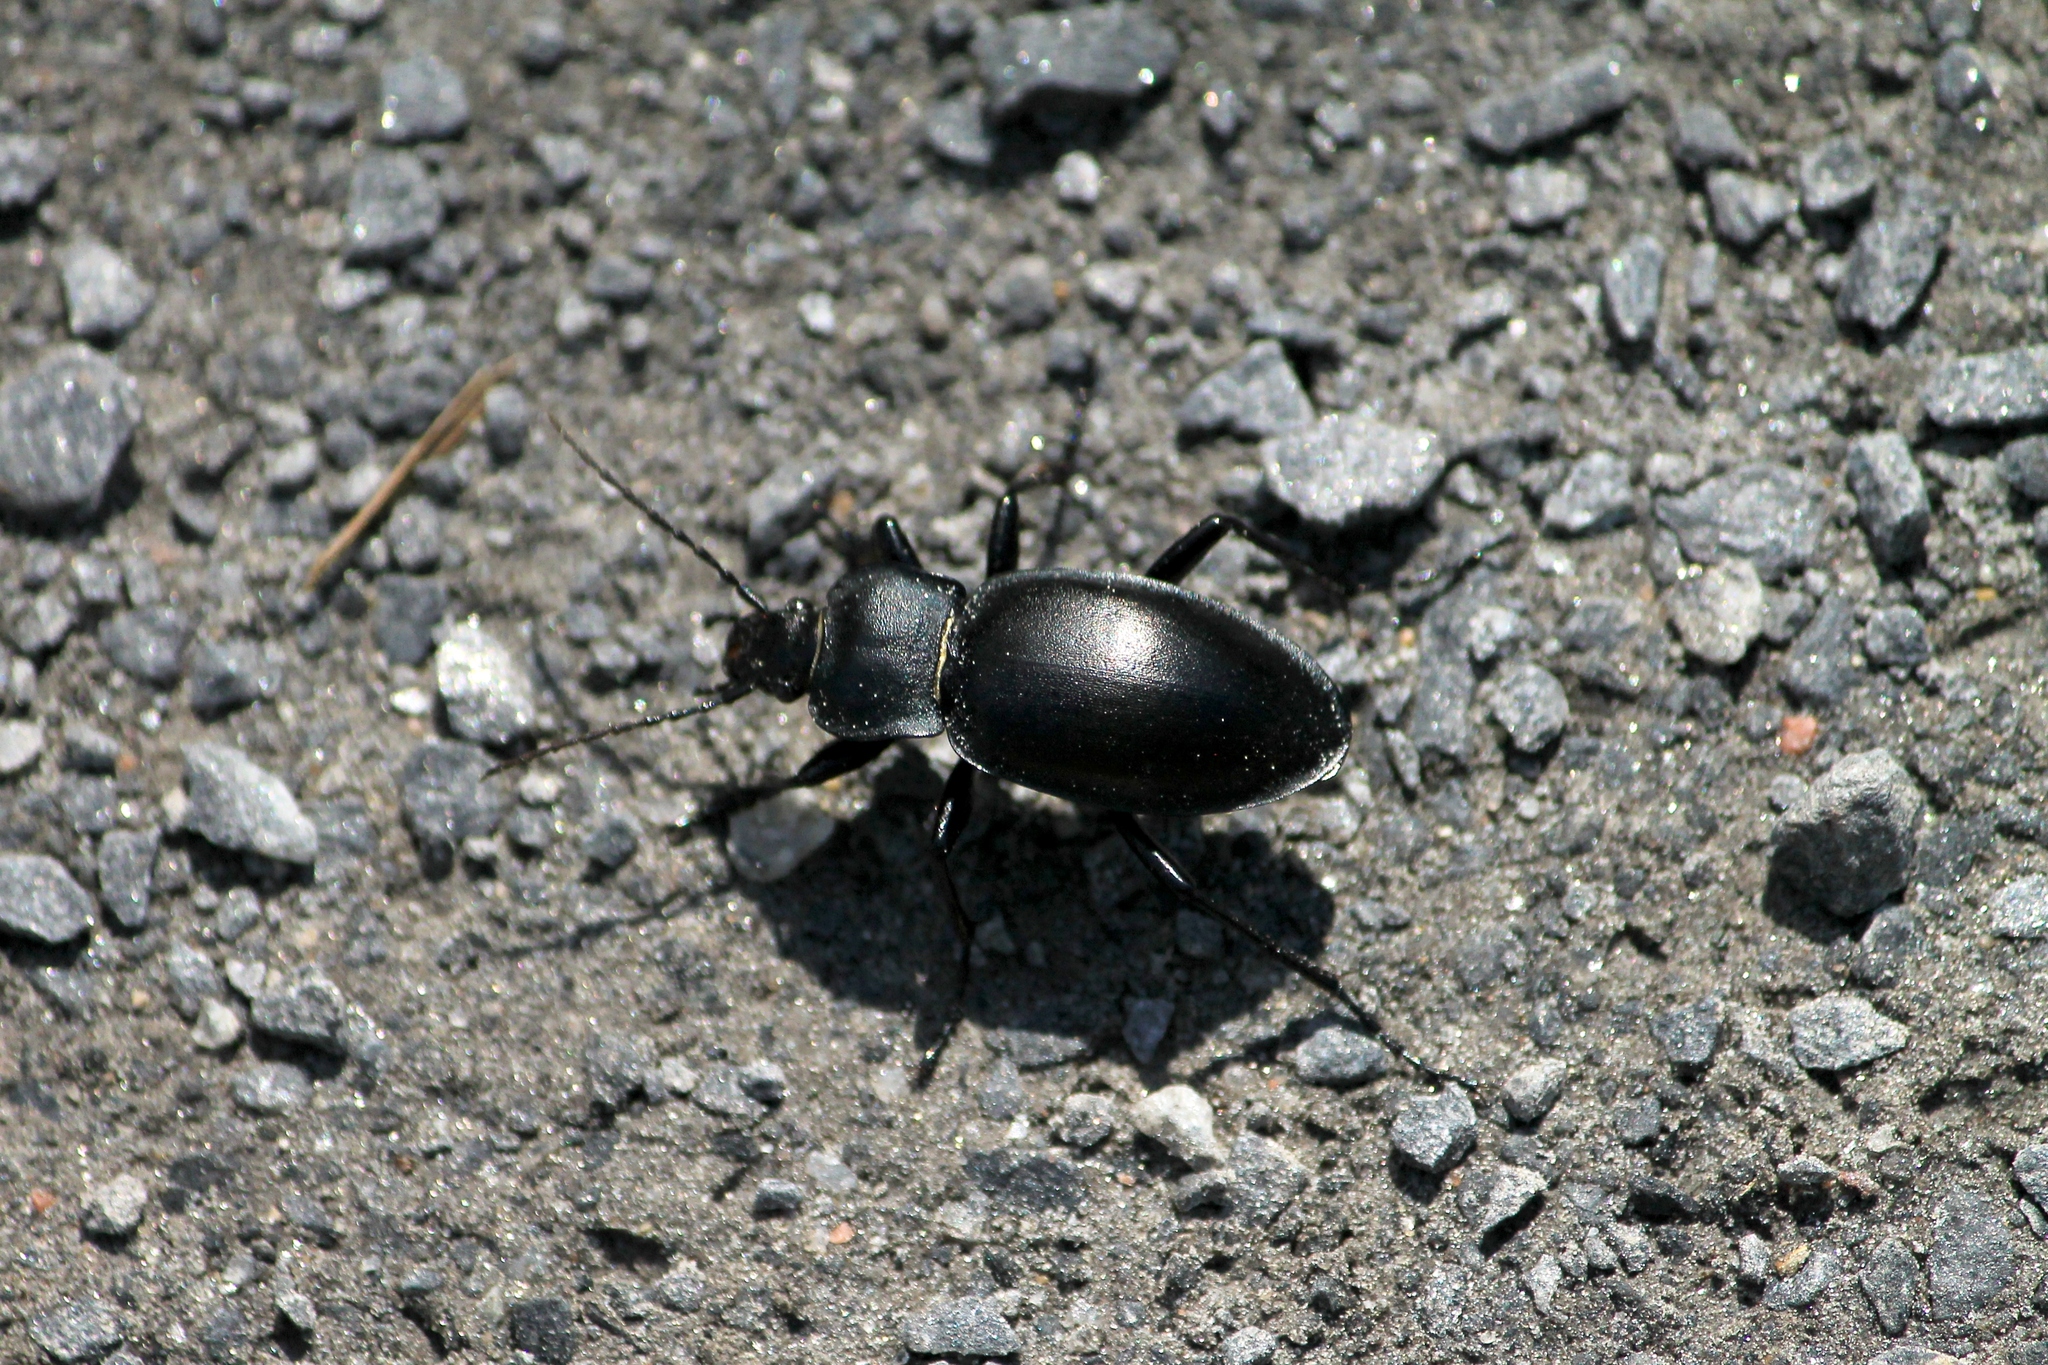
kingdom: Animalia
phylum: Arthropoda
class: Insecta
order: Coleoptera
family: Carabidae
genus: Carabus
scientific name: Carabus glabratus
